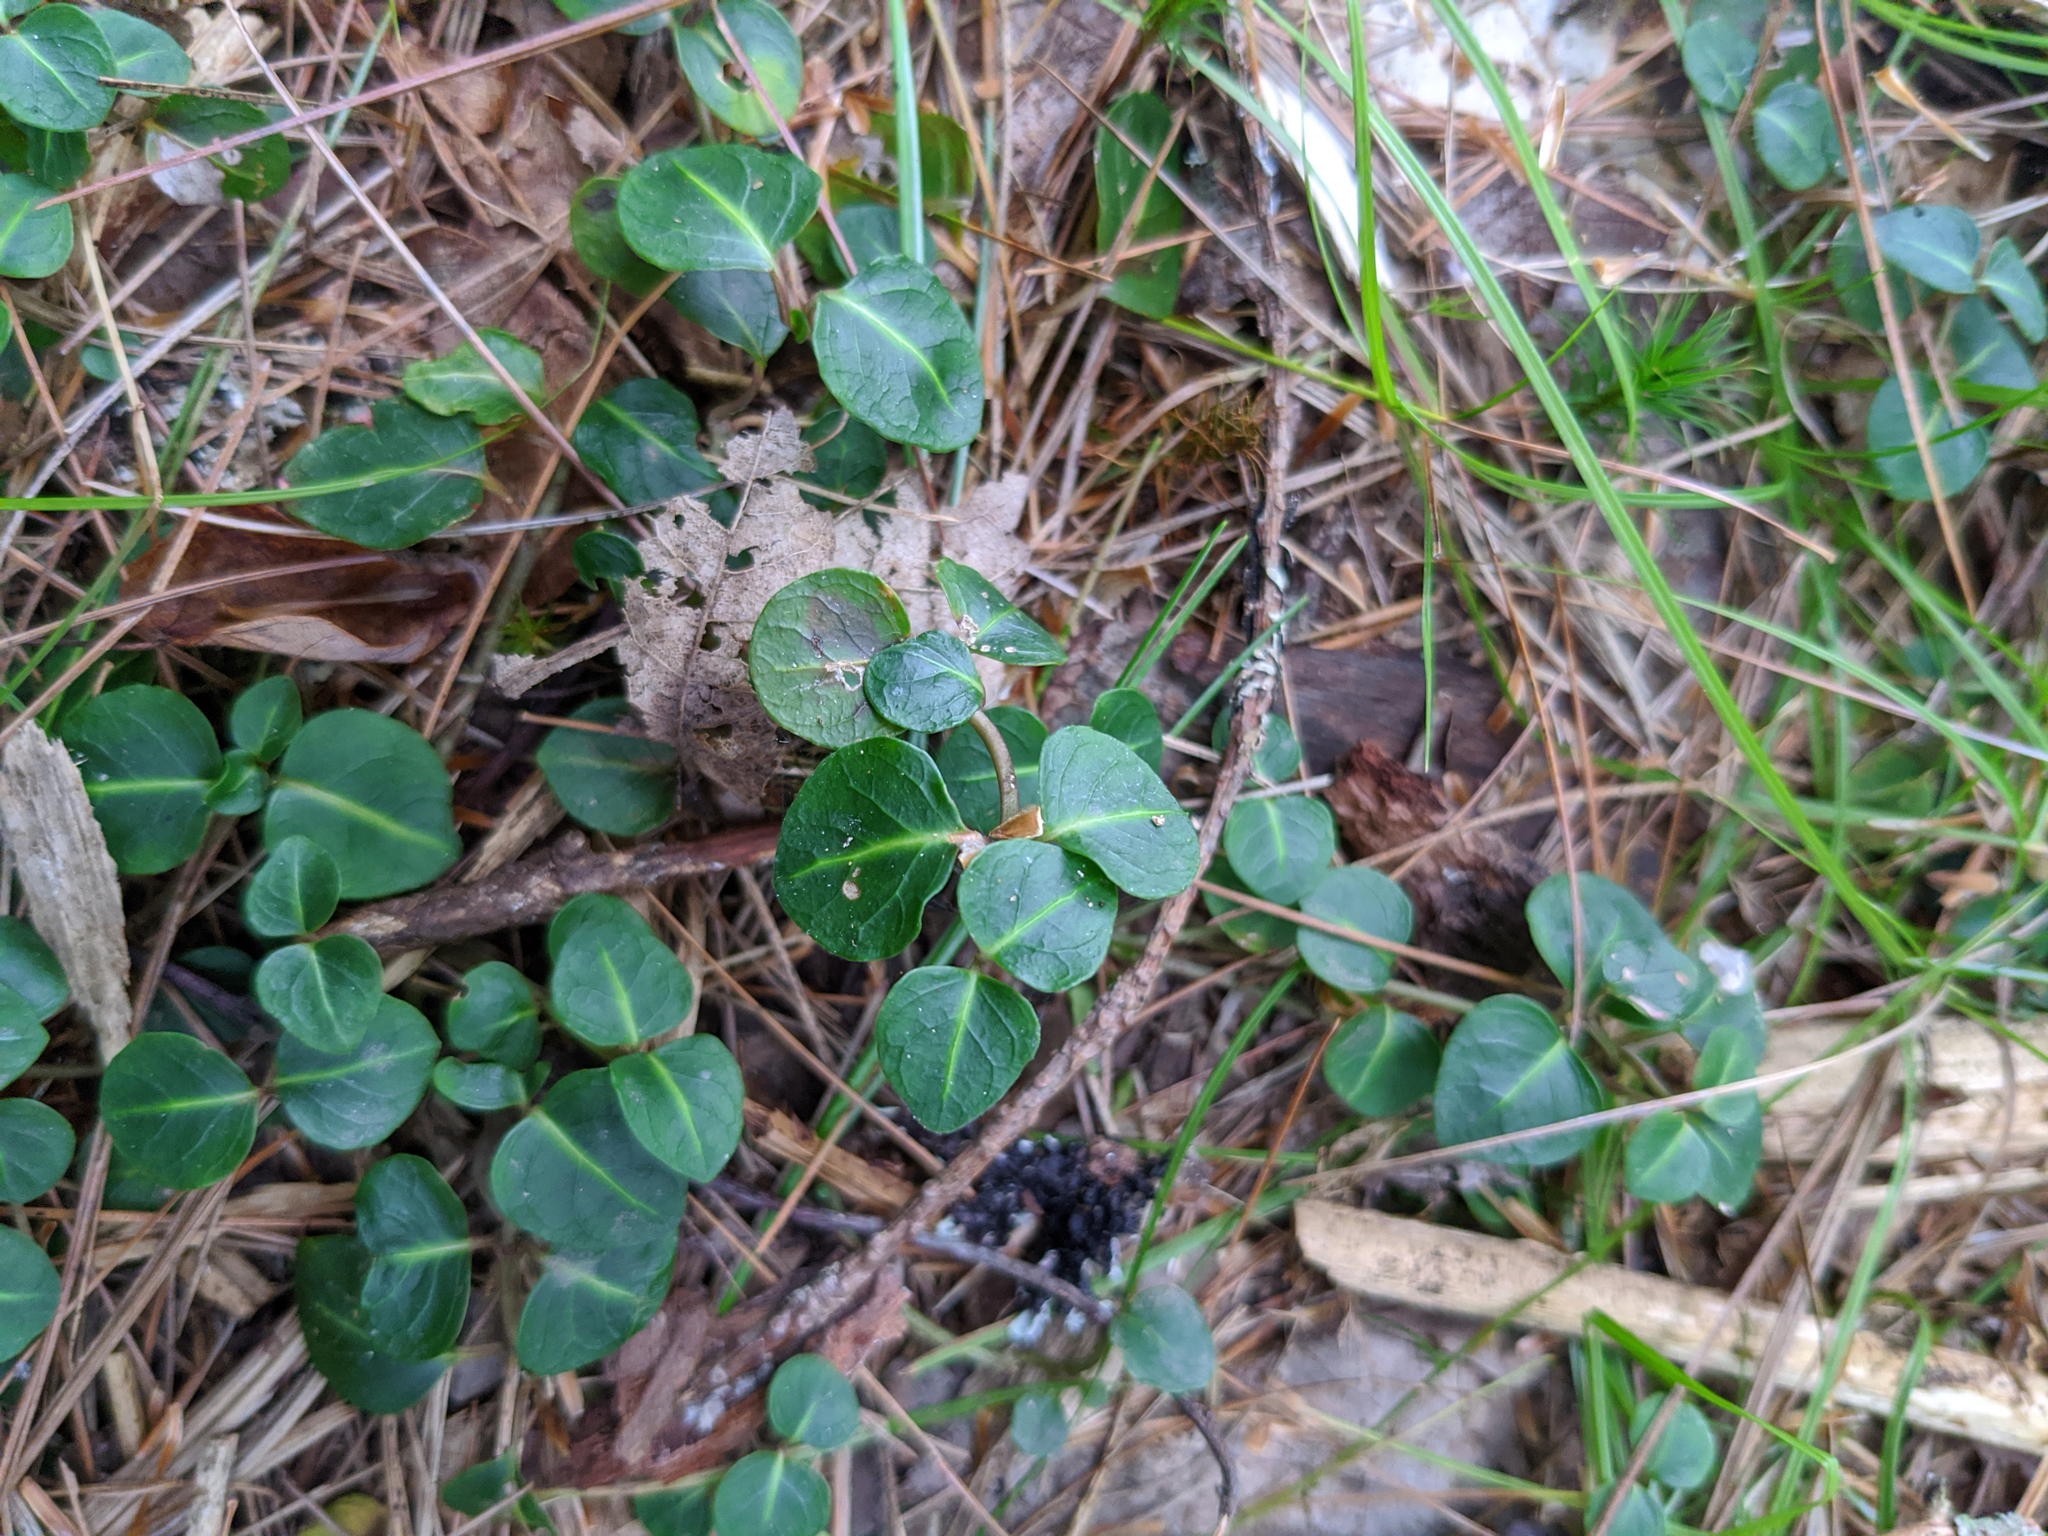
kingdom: Plantae
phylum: Tracheophyta
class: Magnoliopsida
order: Gentianales
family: Rubiaceae
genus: Mitchella
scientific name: Mitchella repens
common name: Partridge-berry
